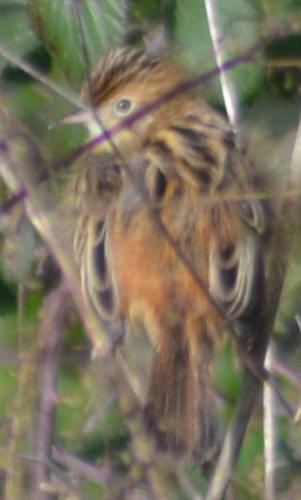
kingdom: Animalia
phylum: Chordata
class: Aves
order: Passeriformes
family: Cisticolidae
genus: Cisticola
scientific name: Cisticola juncidis
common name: Zitting cisticola
